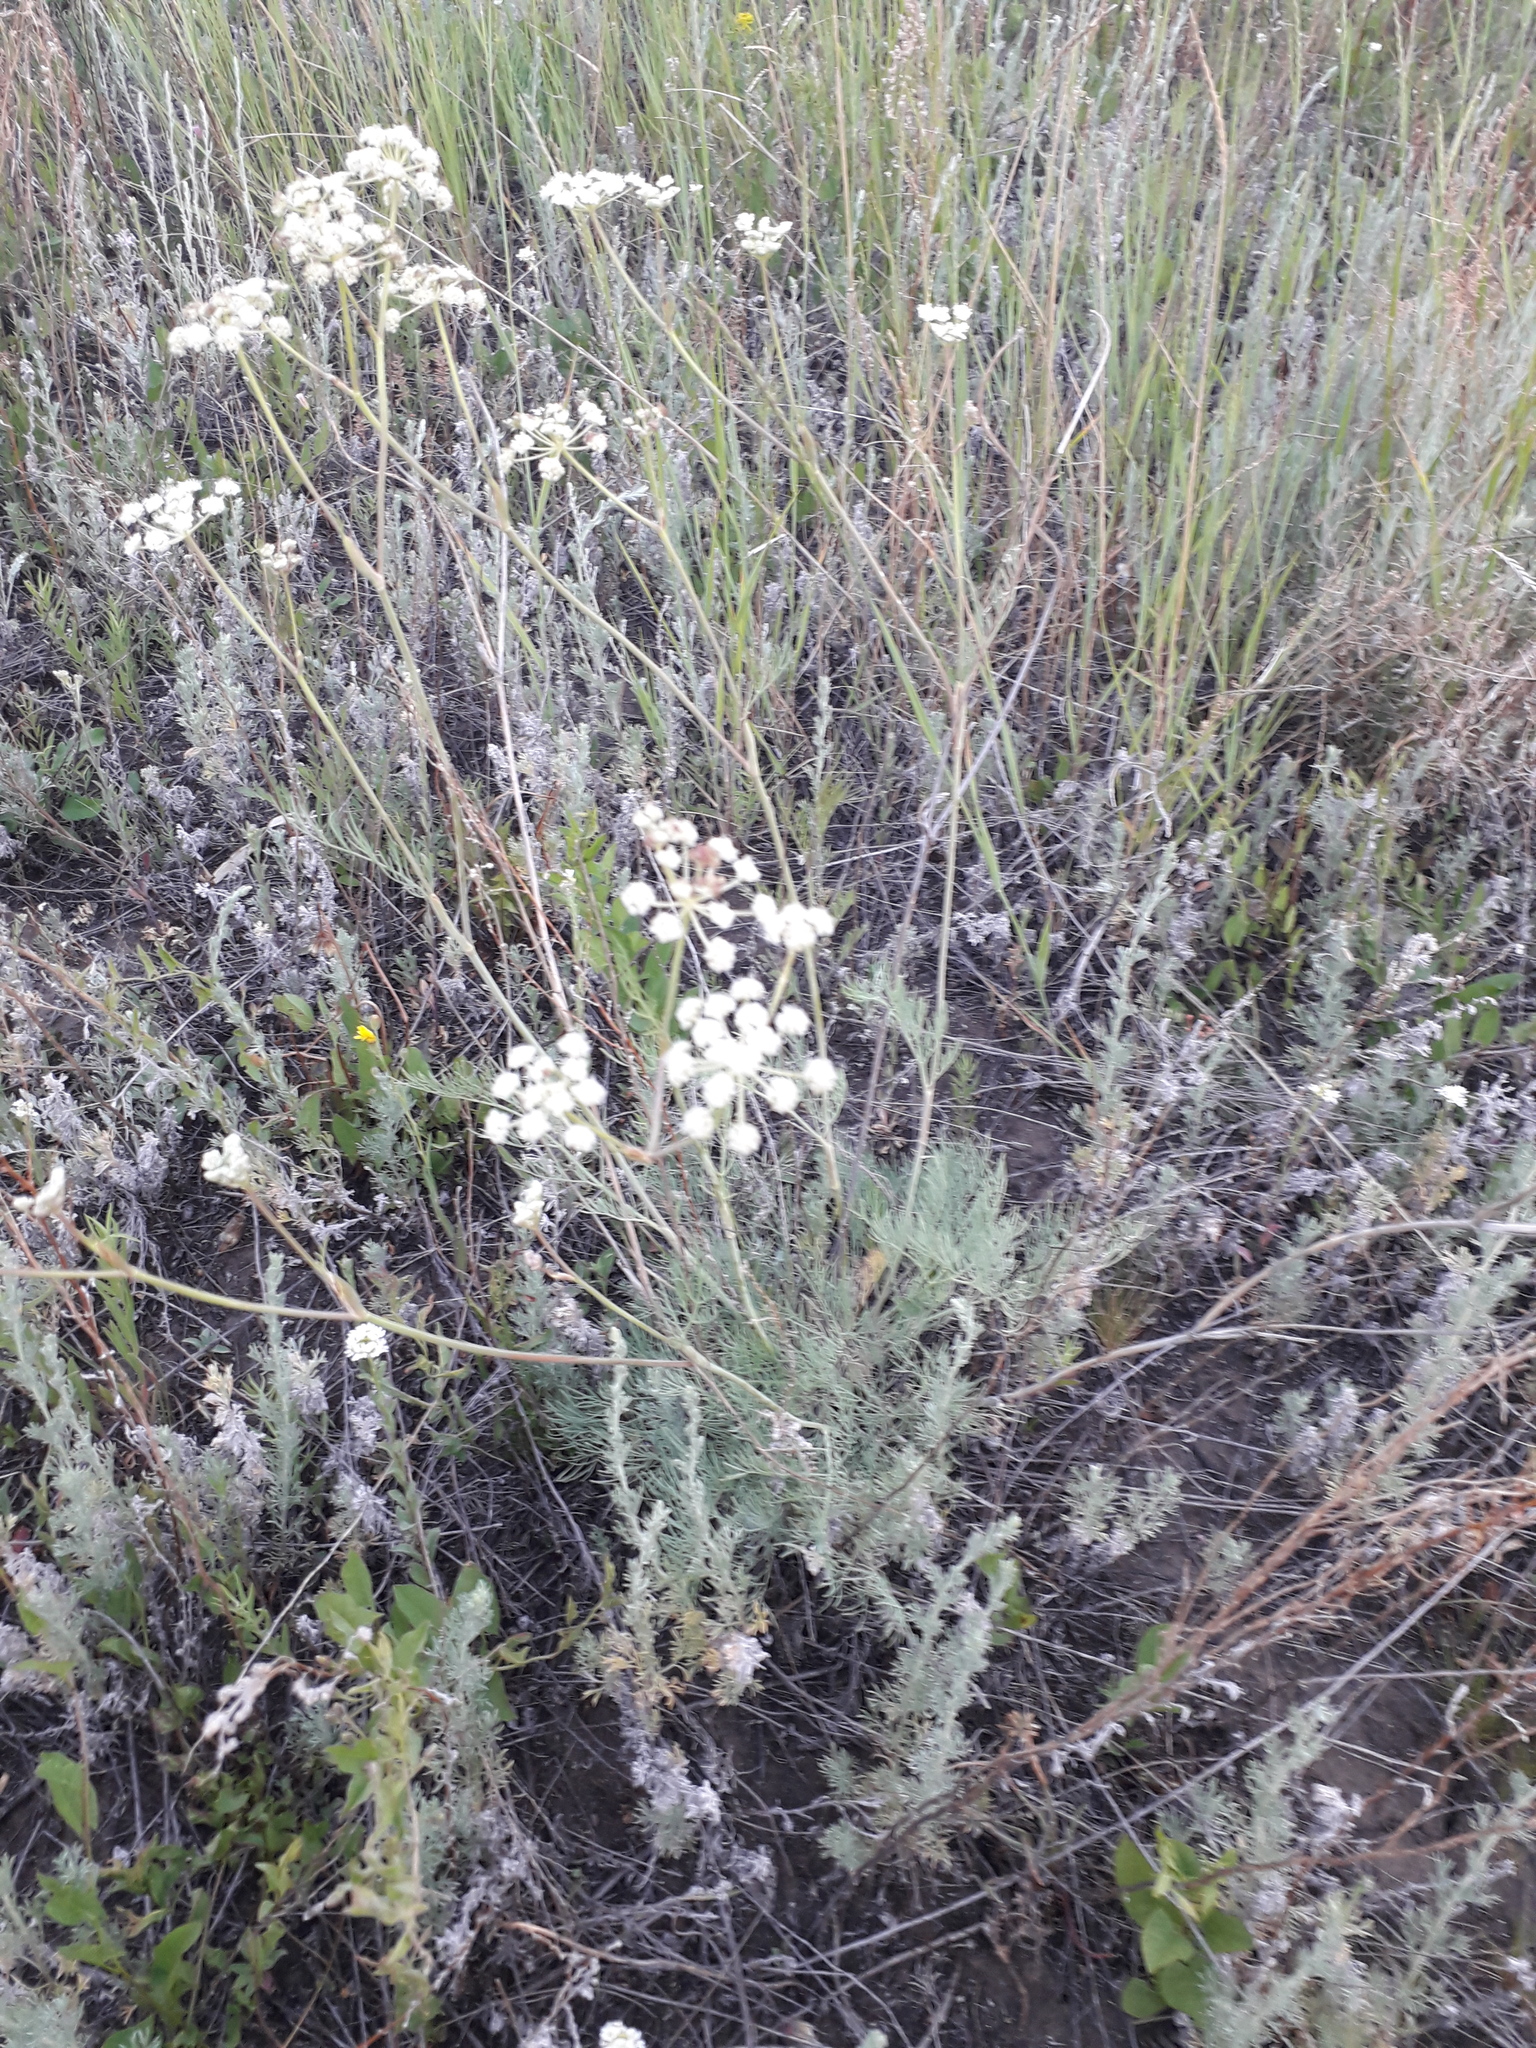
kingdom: Plantae
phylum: Tracheophyta
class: Magnoliopsida
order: Apiales
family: Apiaceae
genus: Seseli
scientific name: Seseli ledebourii
